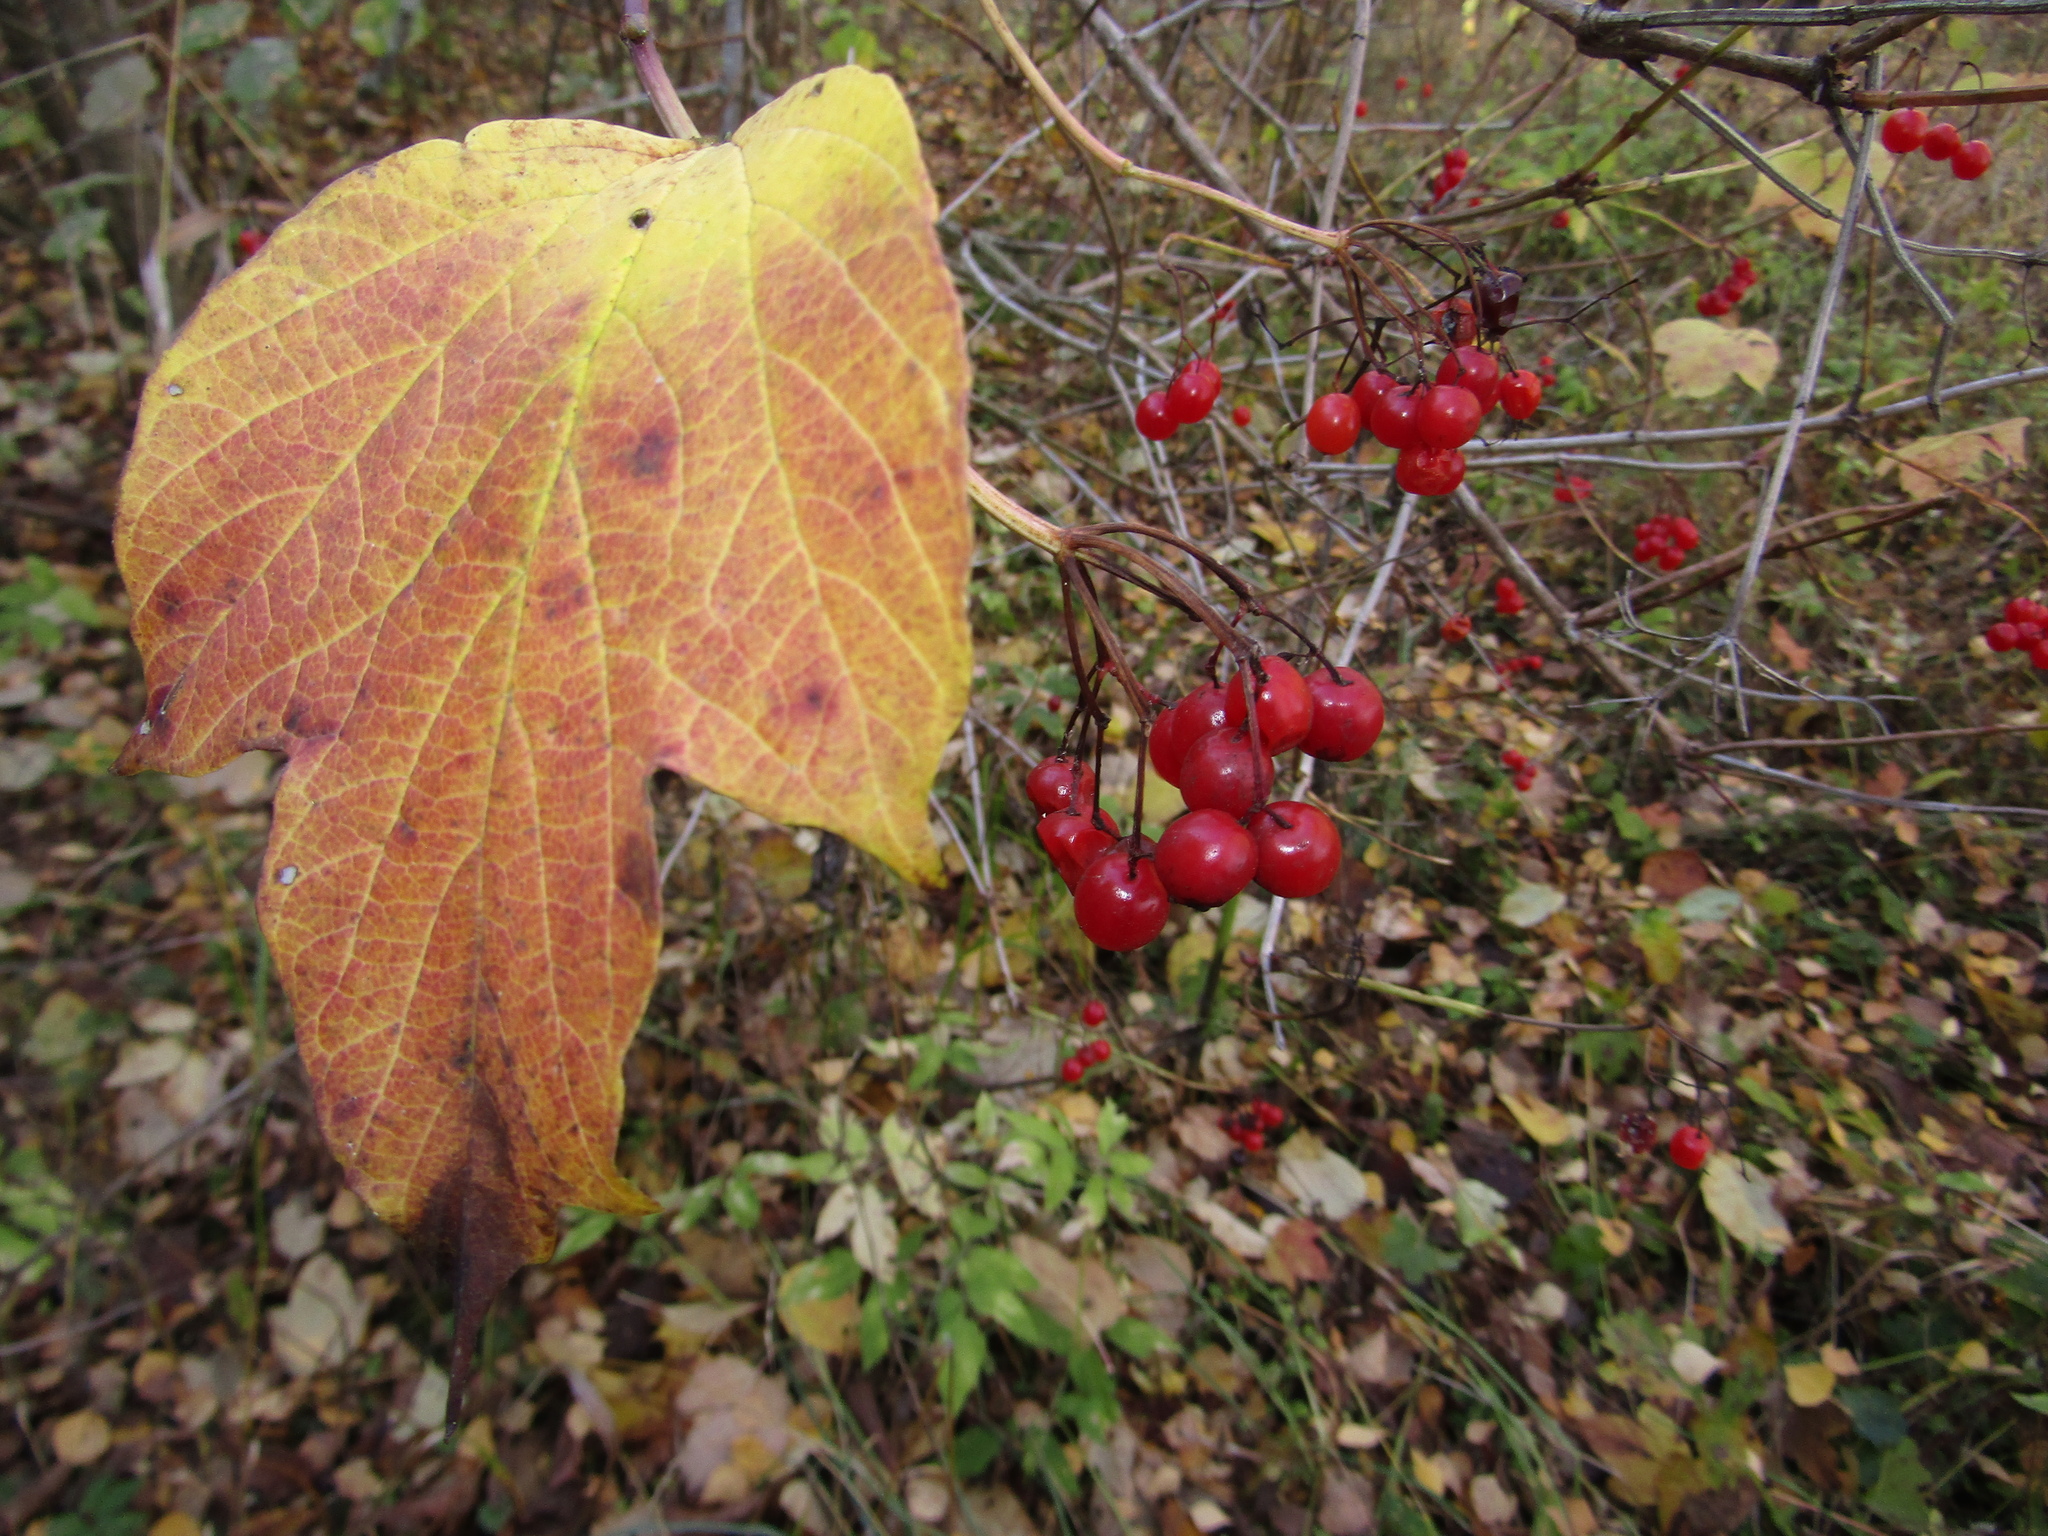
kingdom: Plantae
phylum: Tracheophyta
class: Magnoliopsida
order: Dipsacales
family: Viburnaceae
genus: Viburnum
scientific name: Viburnum opulus
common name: Guelder-rose
